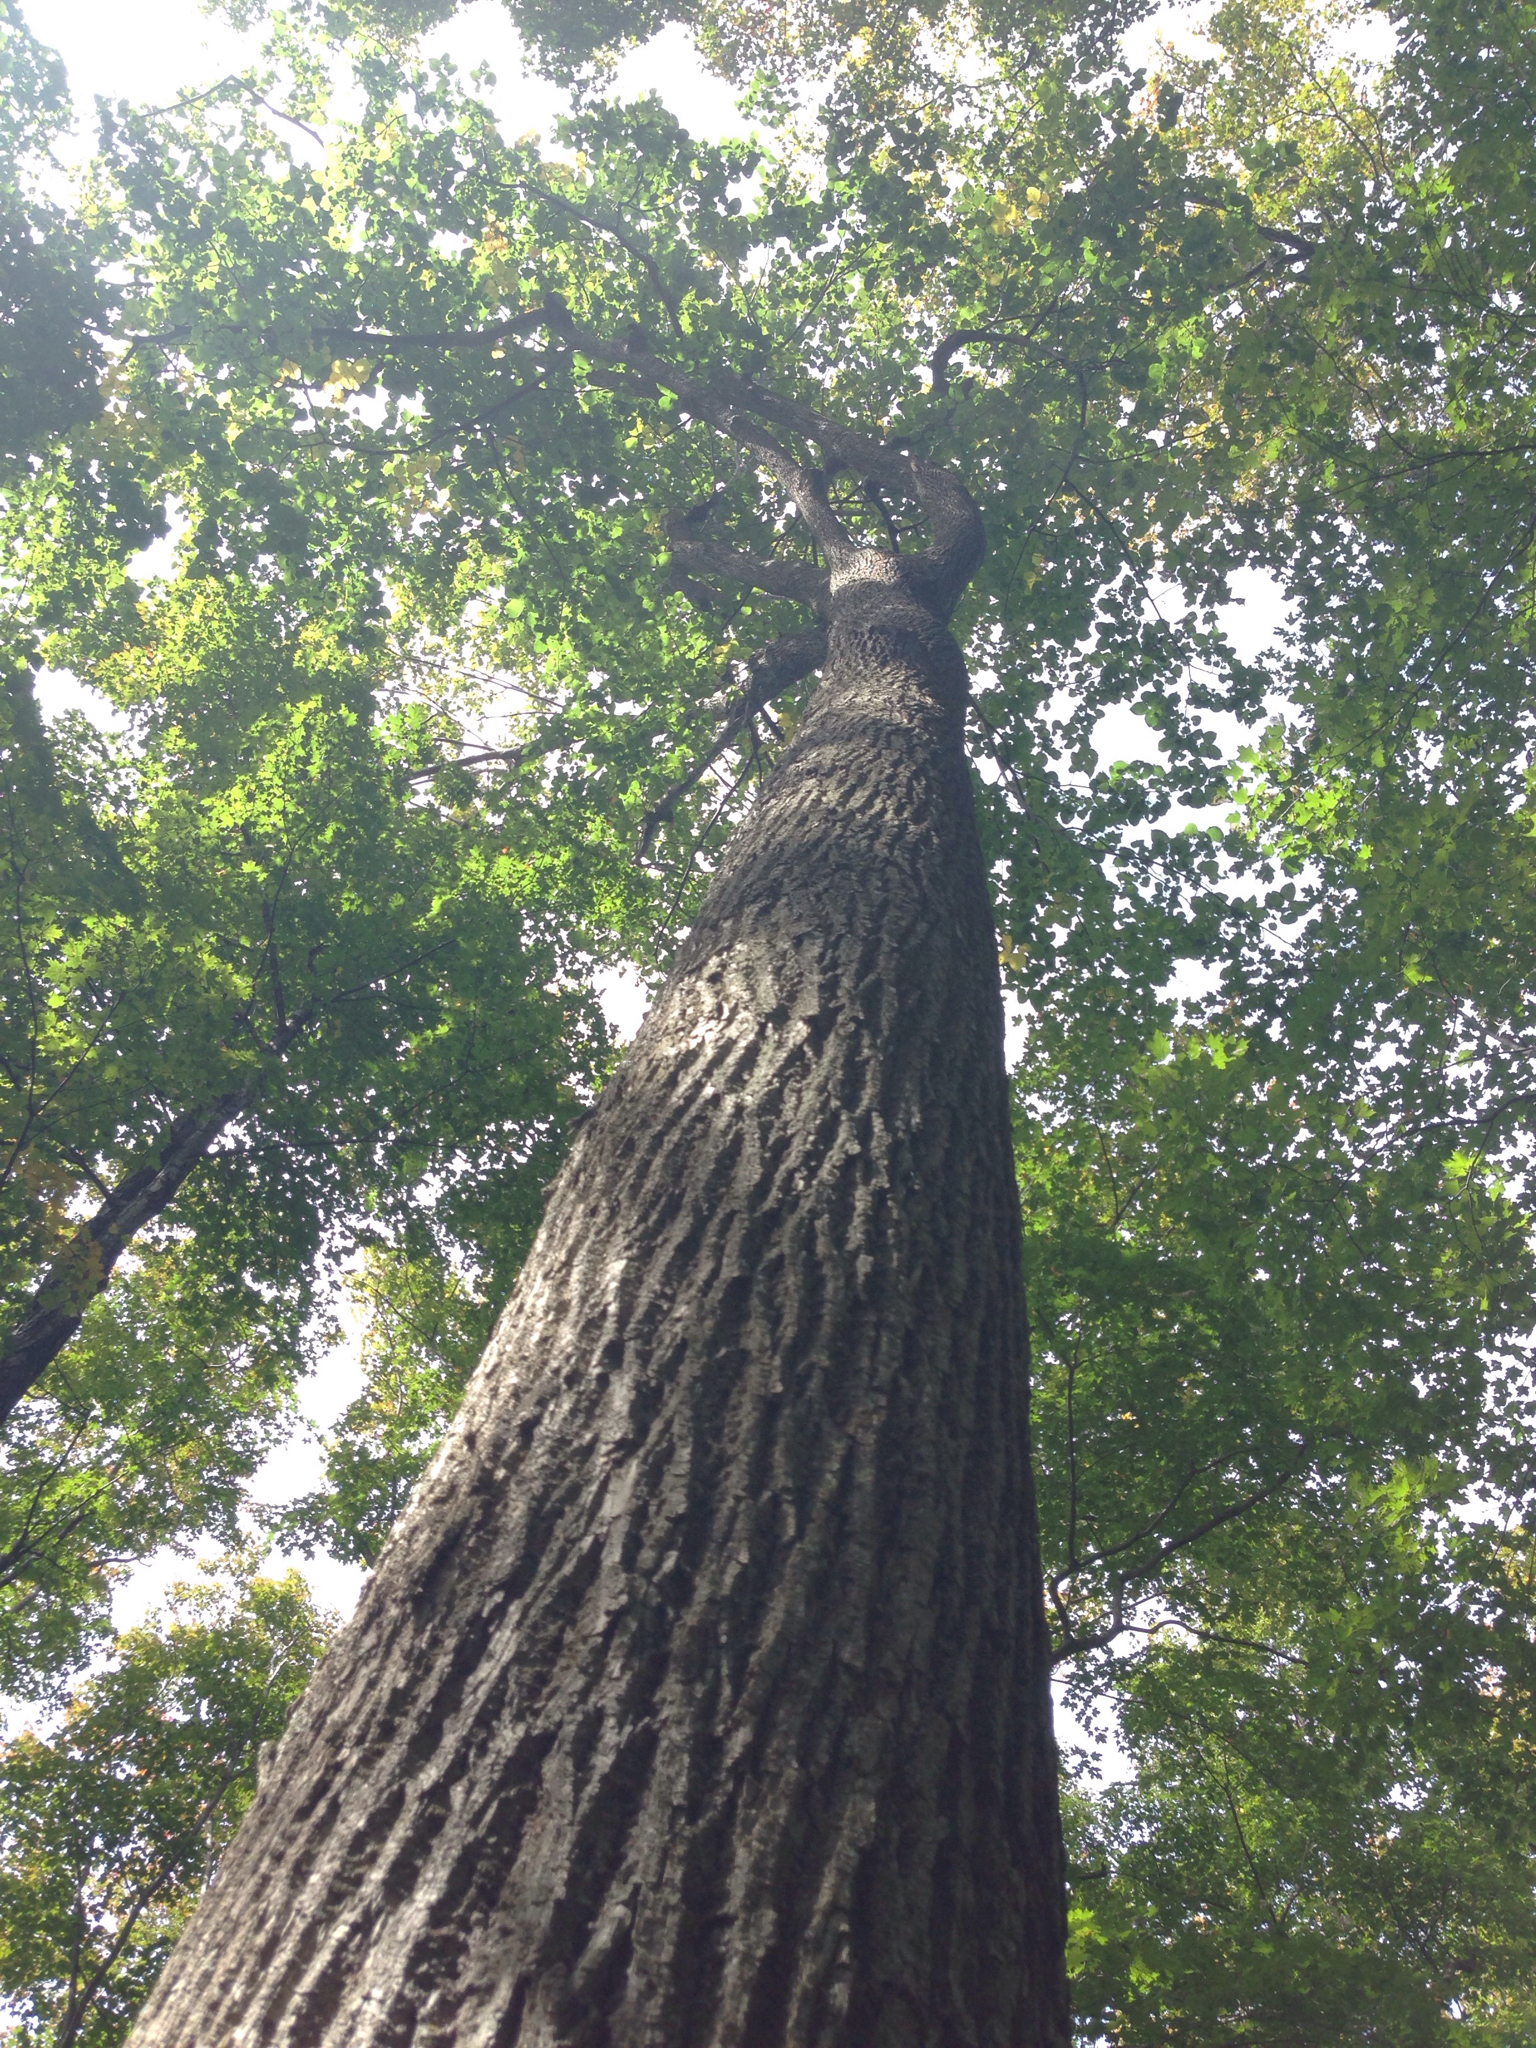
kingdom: Plantae
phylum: Tracheophyta
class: Magnoliopsida
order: Malvales
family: Malvaceae
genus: Tilia
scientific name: Tilia americana
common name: Basswood
